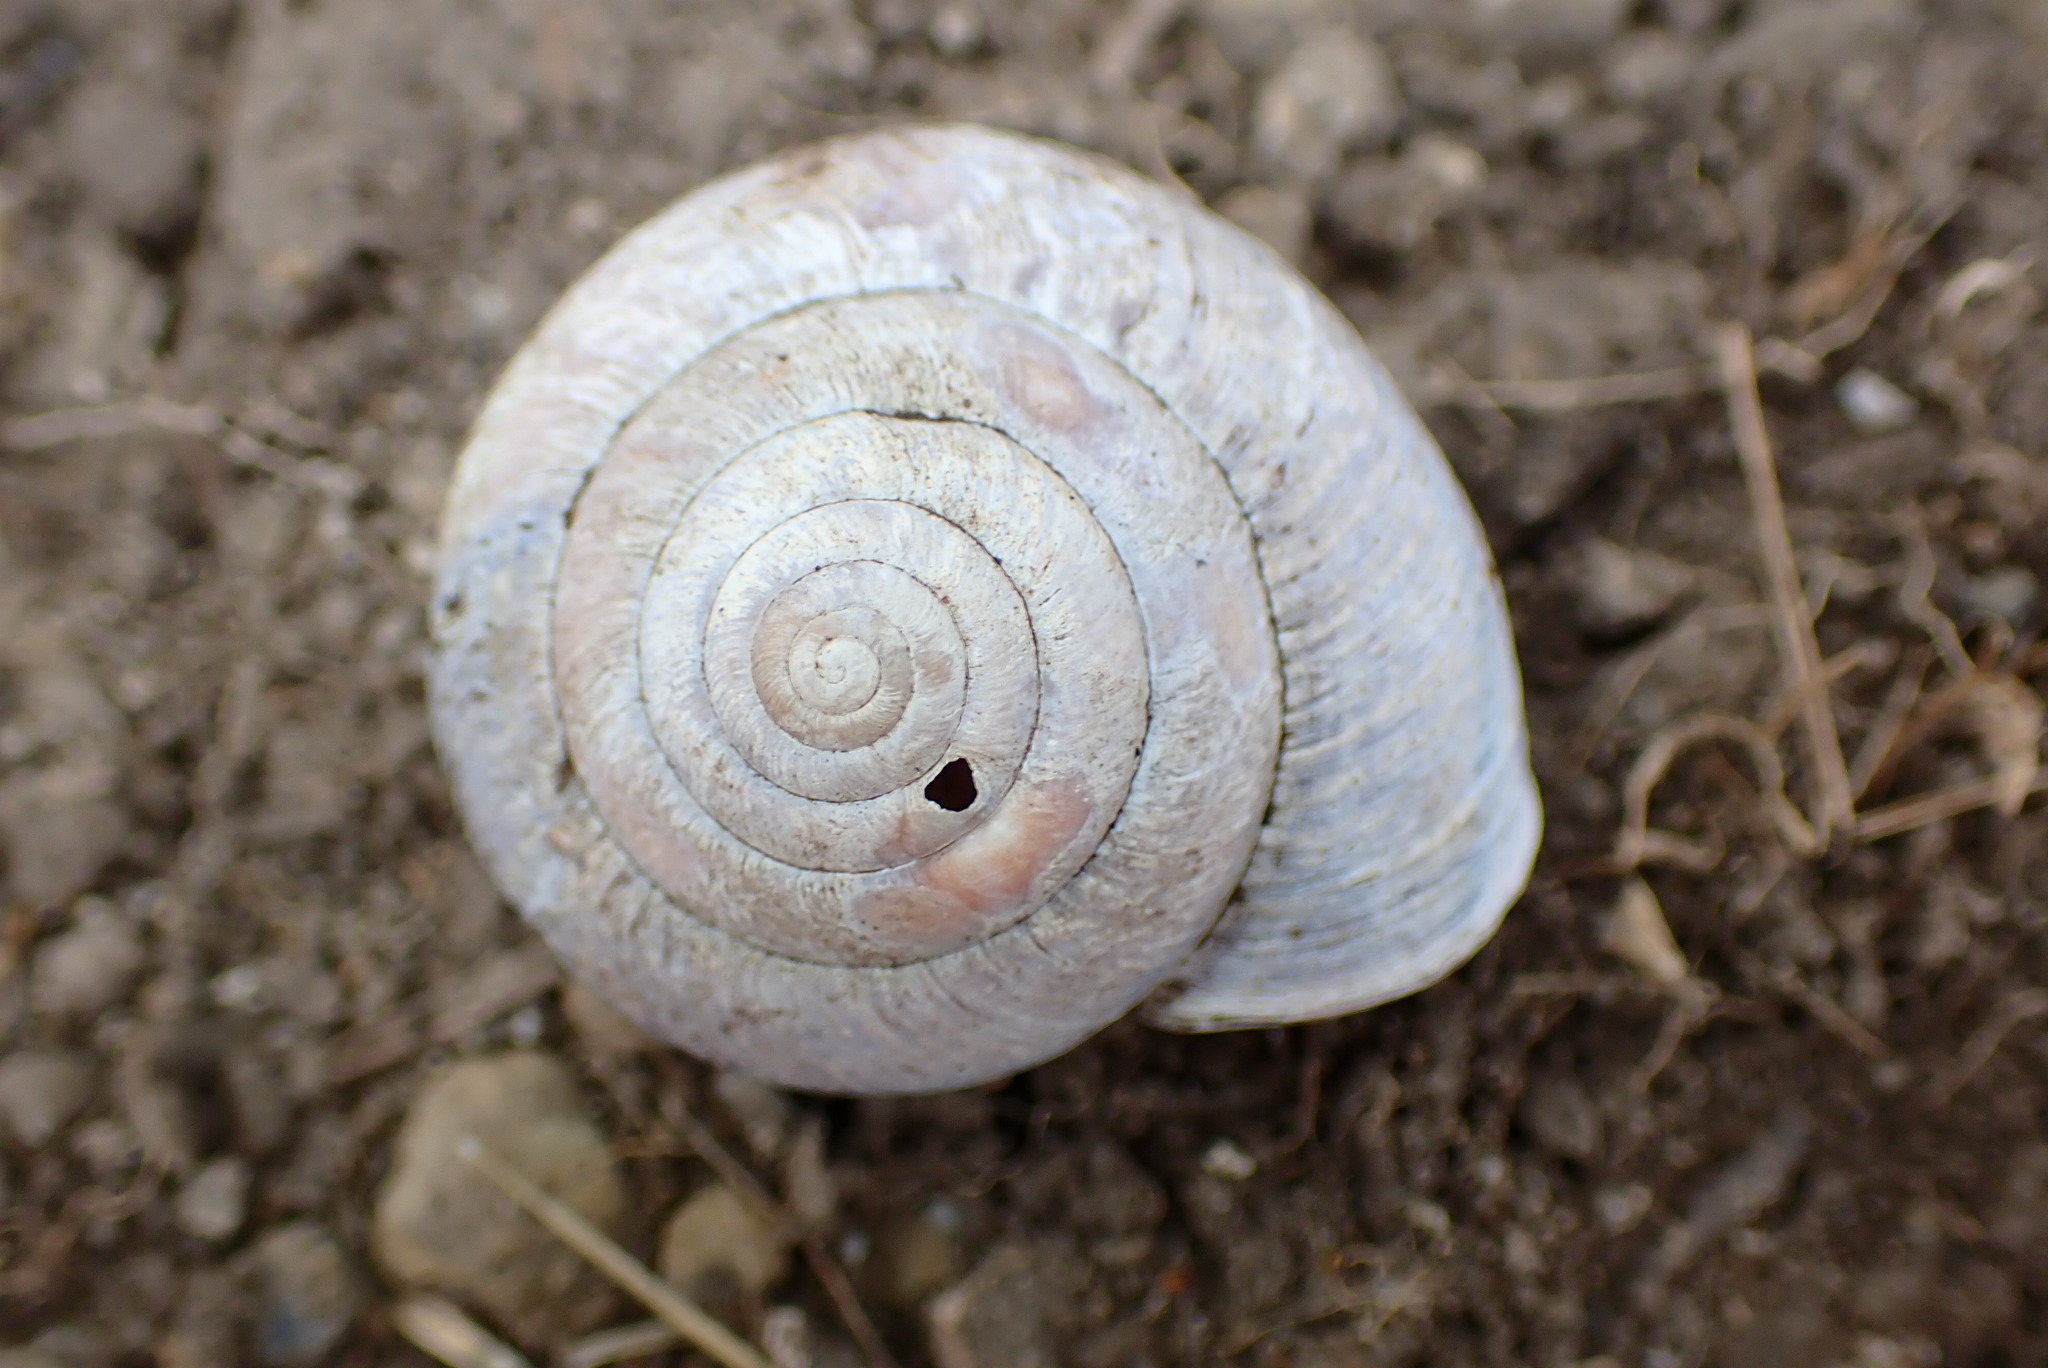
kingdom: Animalia
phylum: Mollusca
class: Gastropoda
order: Stylommatophora
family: Xanthonychidae
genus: Helminthoglypta
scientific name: Helminthoglypta arrosa
